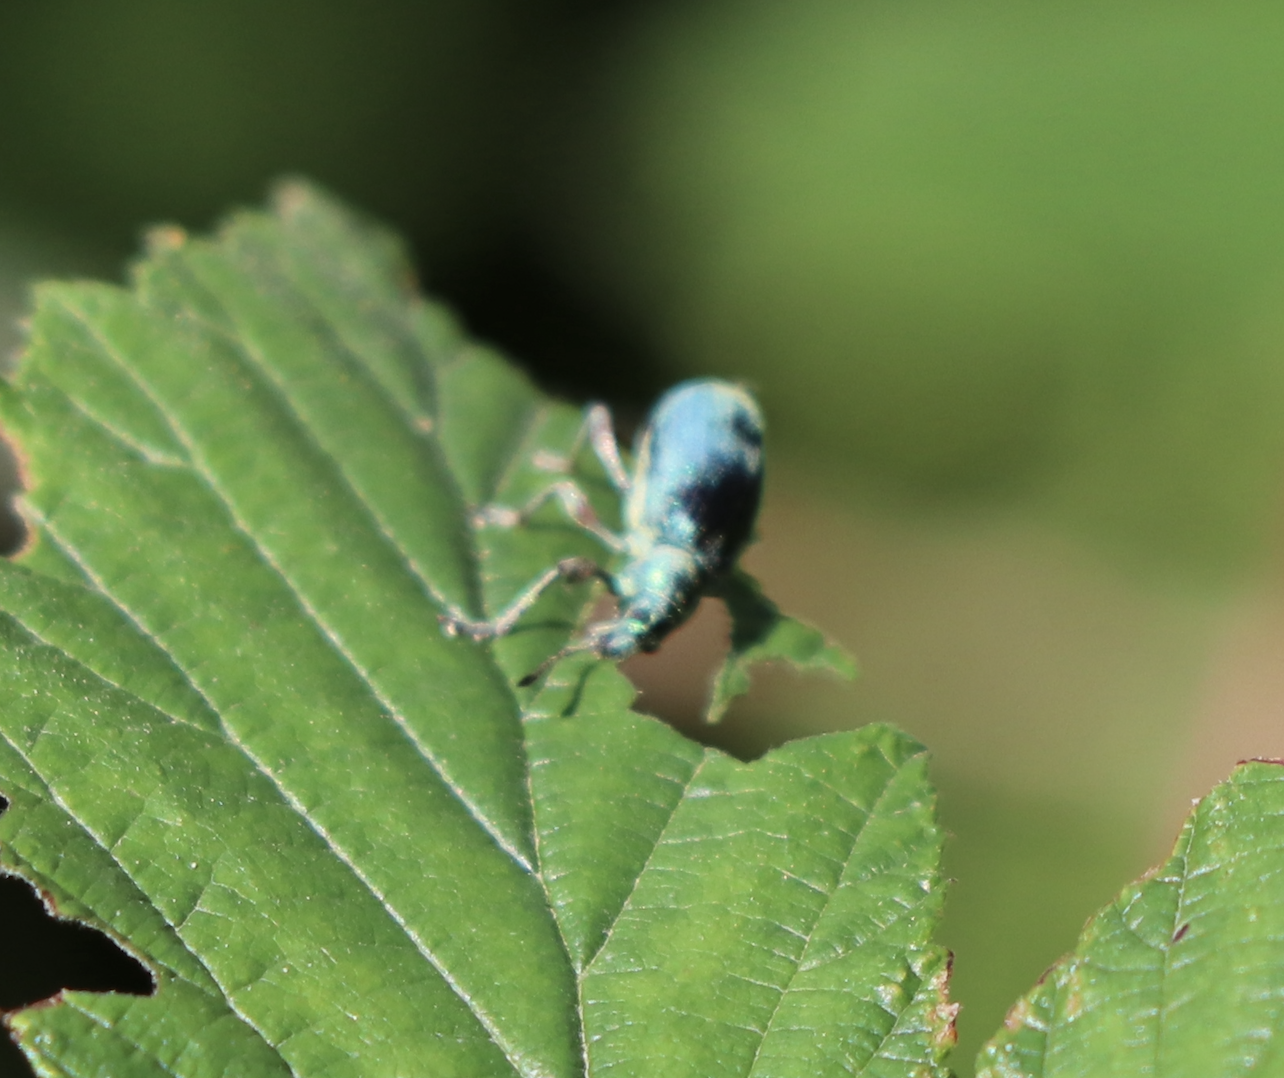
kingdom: Animalia
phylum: Arthropoda
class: Insecta
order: Coleoptera
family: Curculionidae
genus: Phyllobius
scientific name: Phyllobius pomaceus
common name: Green nettle weevil
